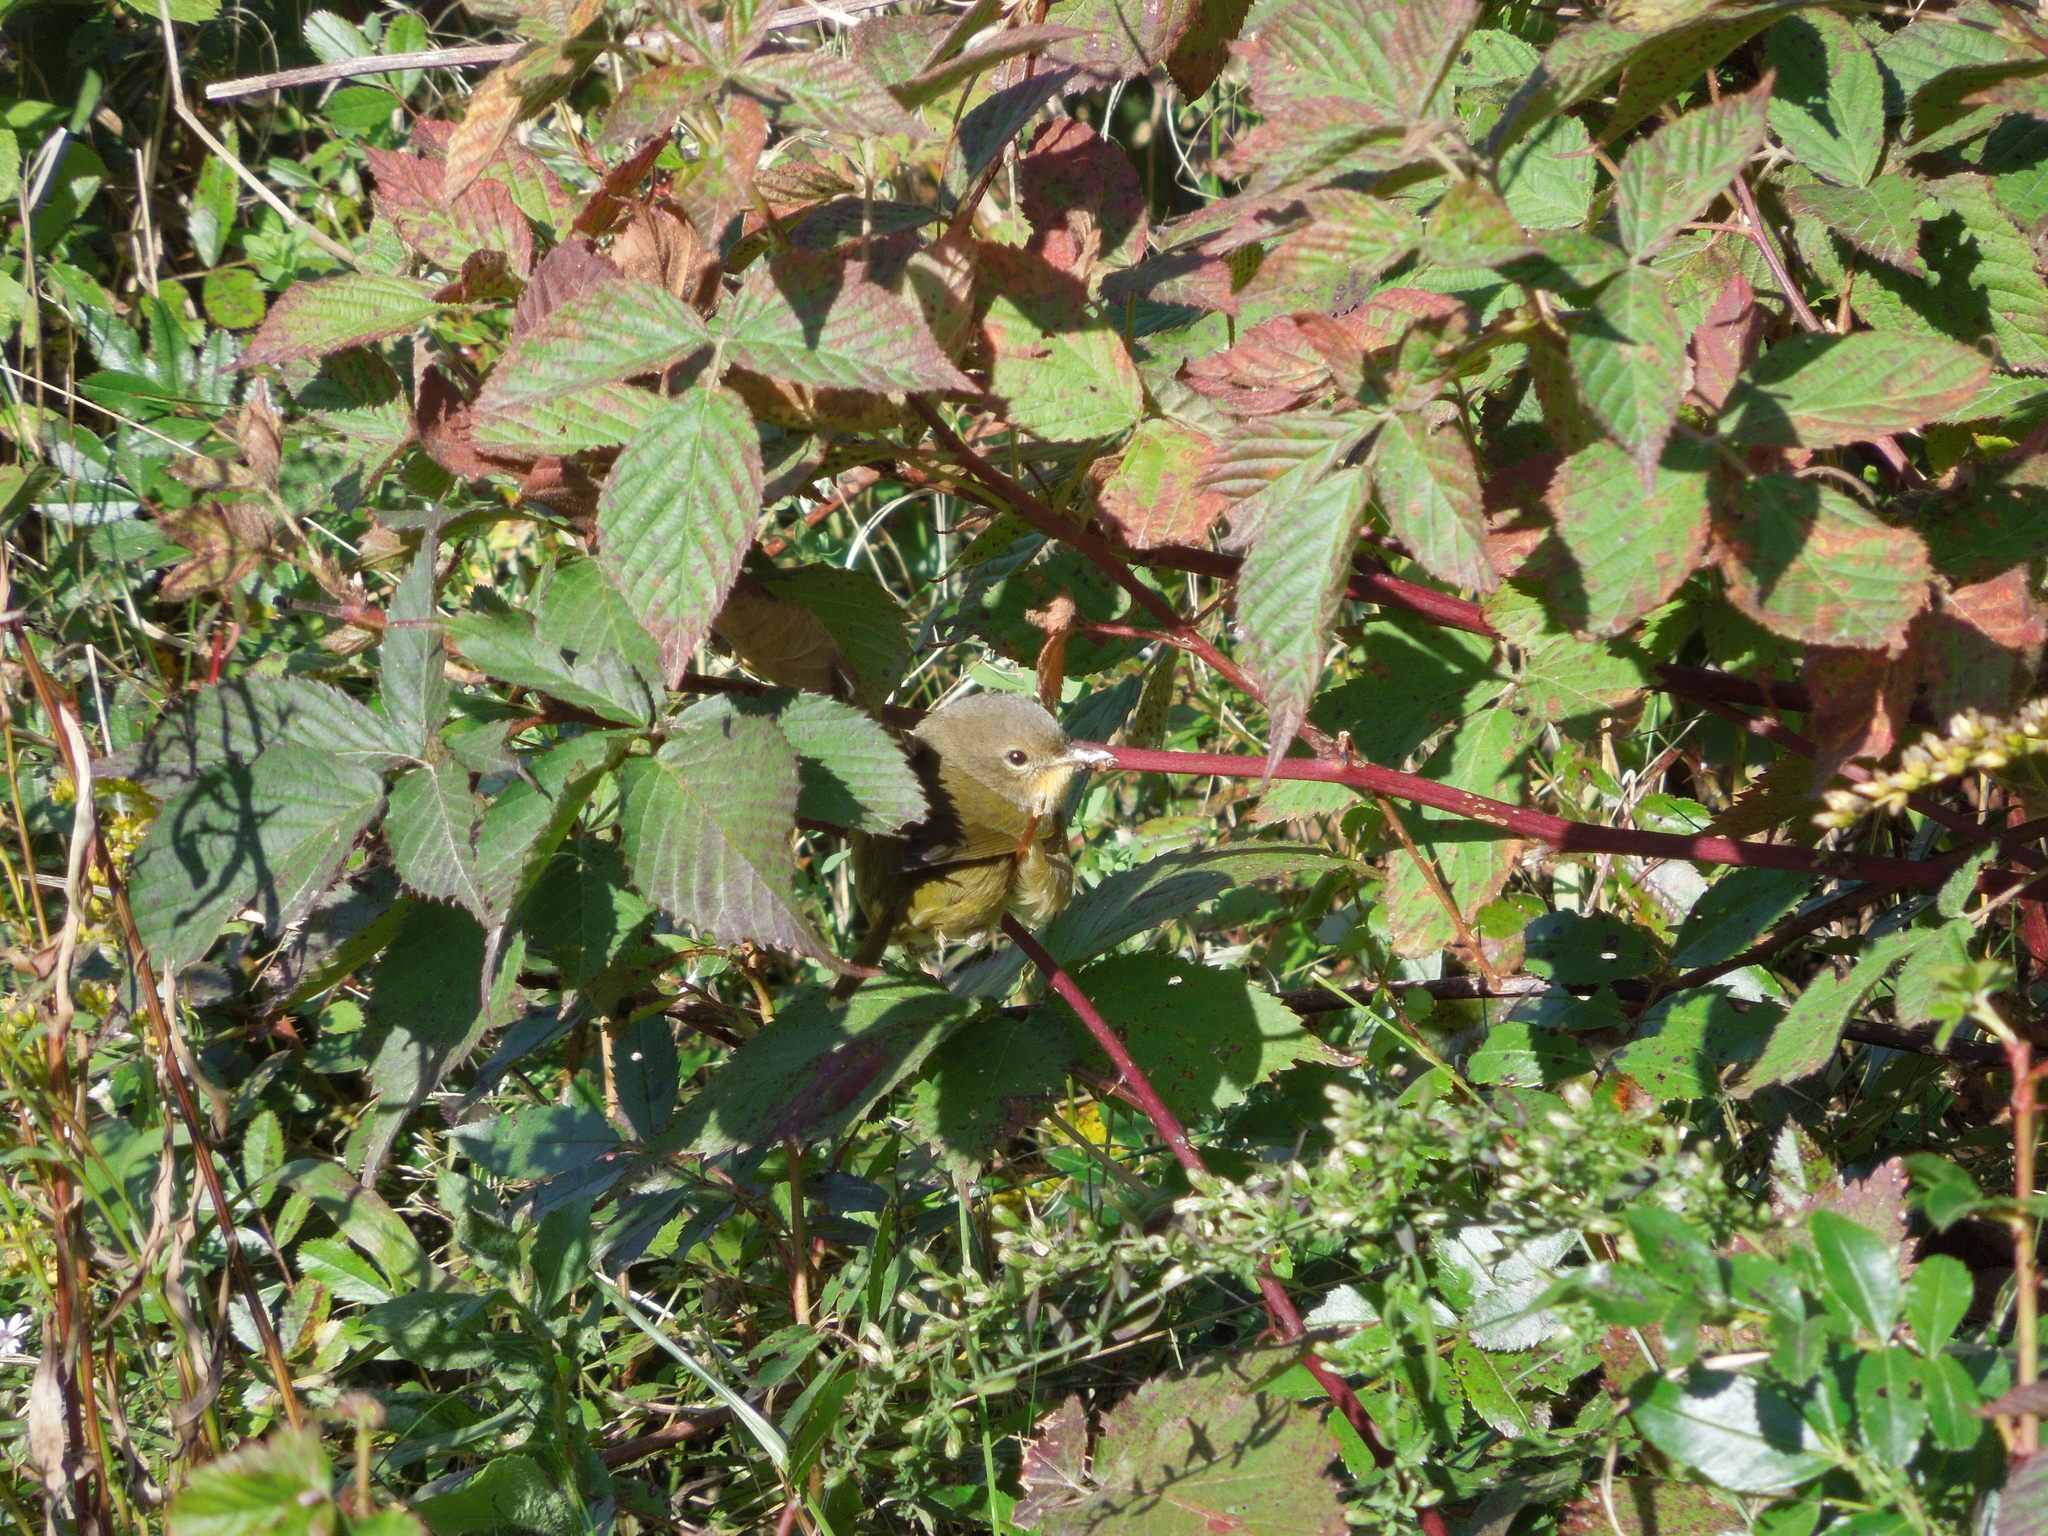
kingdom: Animalia
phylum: Chordata
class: Aves
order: Passeriformes
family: Parulidae
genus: Geothlypis
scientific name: Geothlypis trichas
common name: Common yellowthroat
